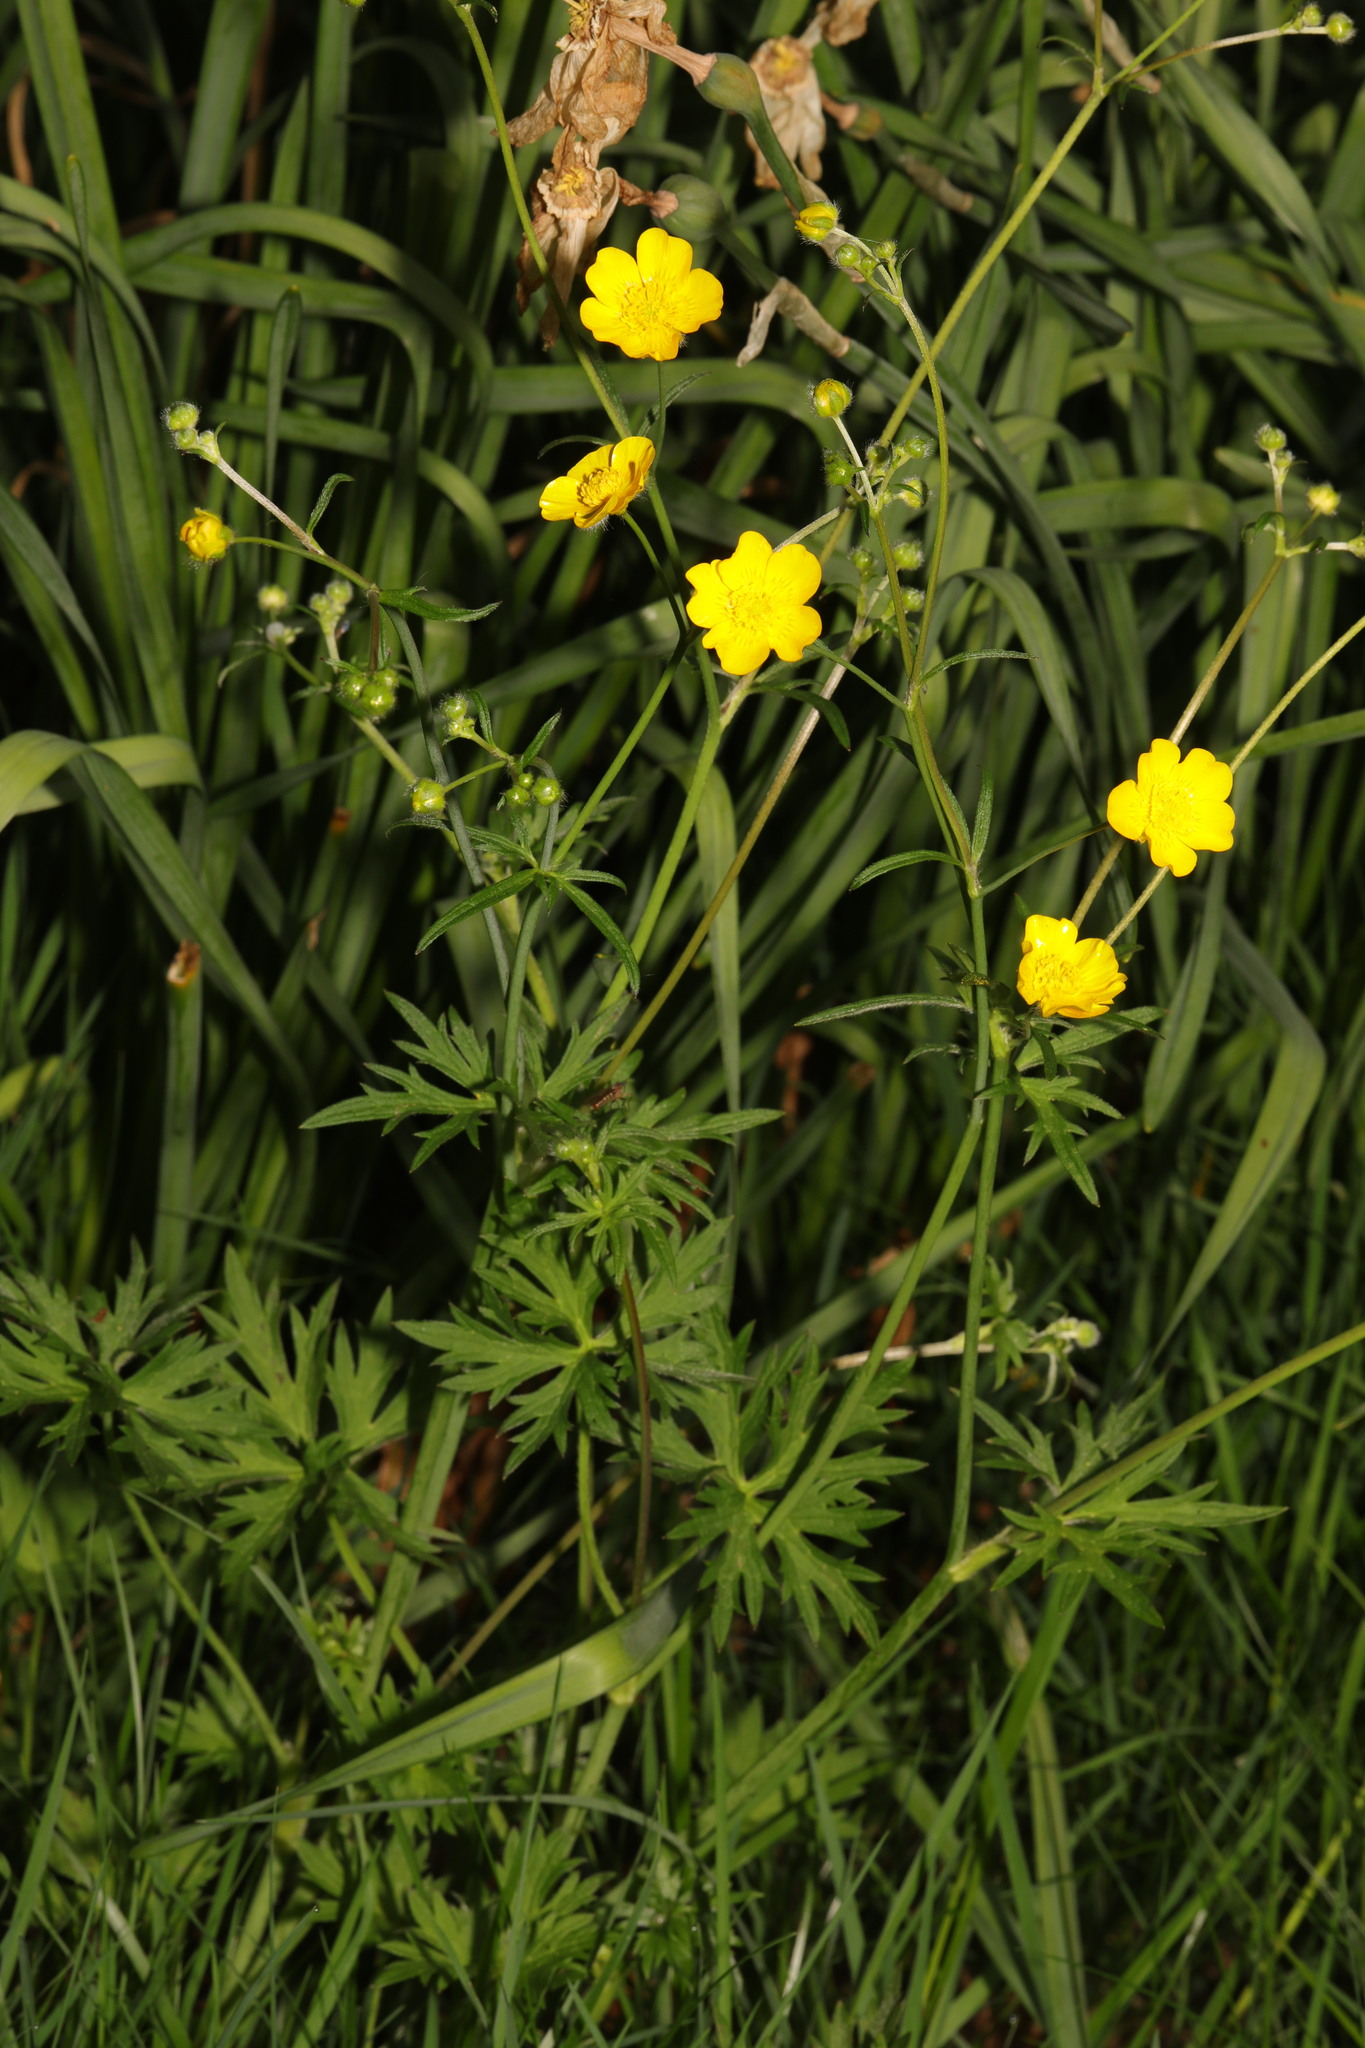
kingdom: Plantae
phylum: Tracheophyta
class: Magnoliopsida
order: Ranunculales
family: Ranunculaceae
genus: Ranunculus
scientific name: Ranunculus acris
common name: Meadow buttercup
